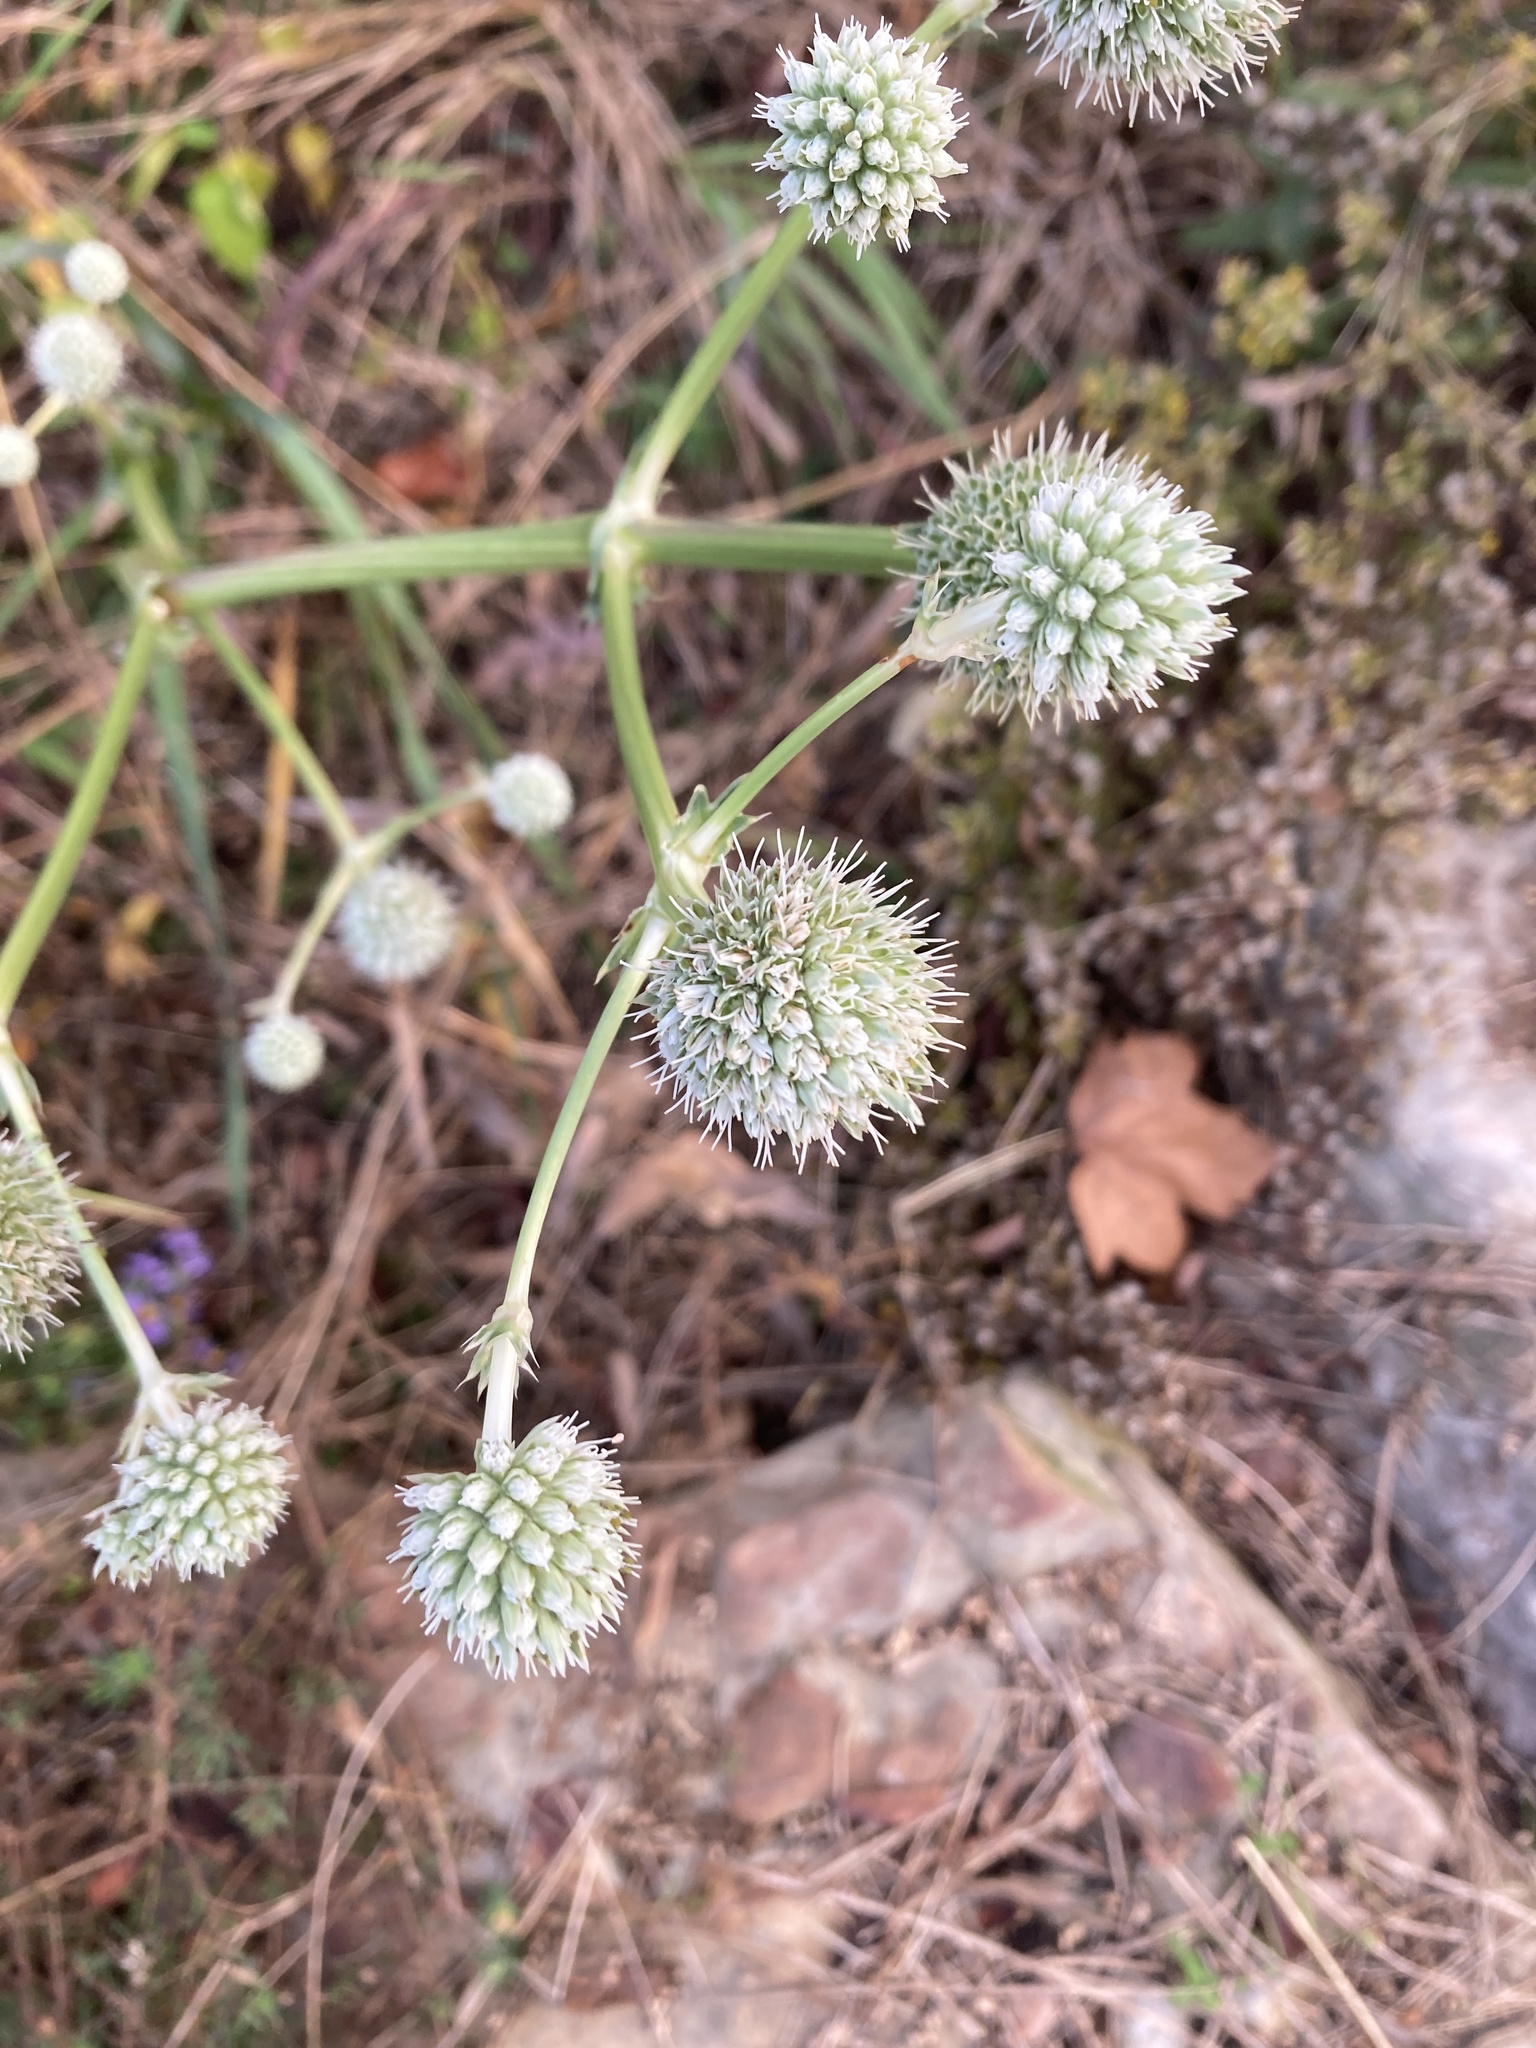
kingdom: Plantae
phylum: Tracheophyta
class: Magnoliopsida
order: Apiales
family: Apiaceae
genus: Eryngium
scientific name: Eryngium yuccifolium
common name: Button eryngo
